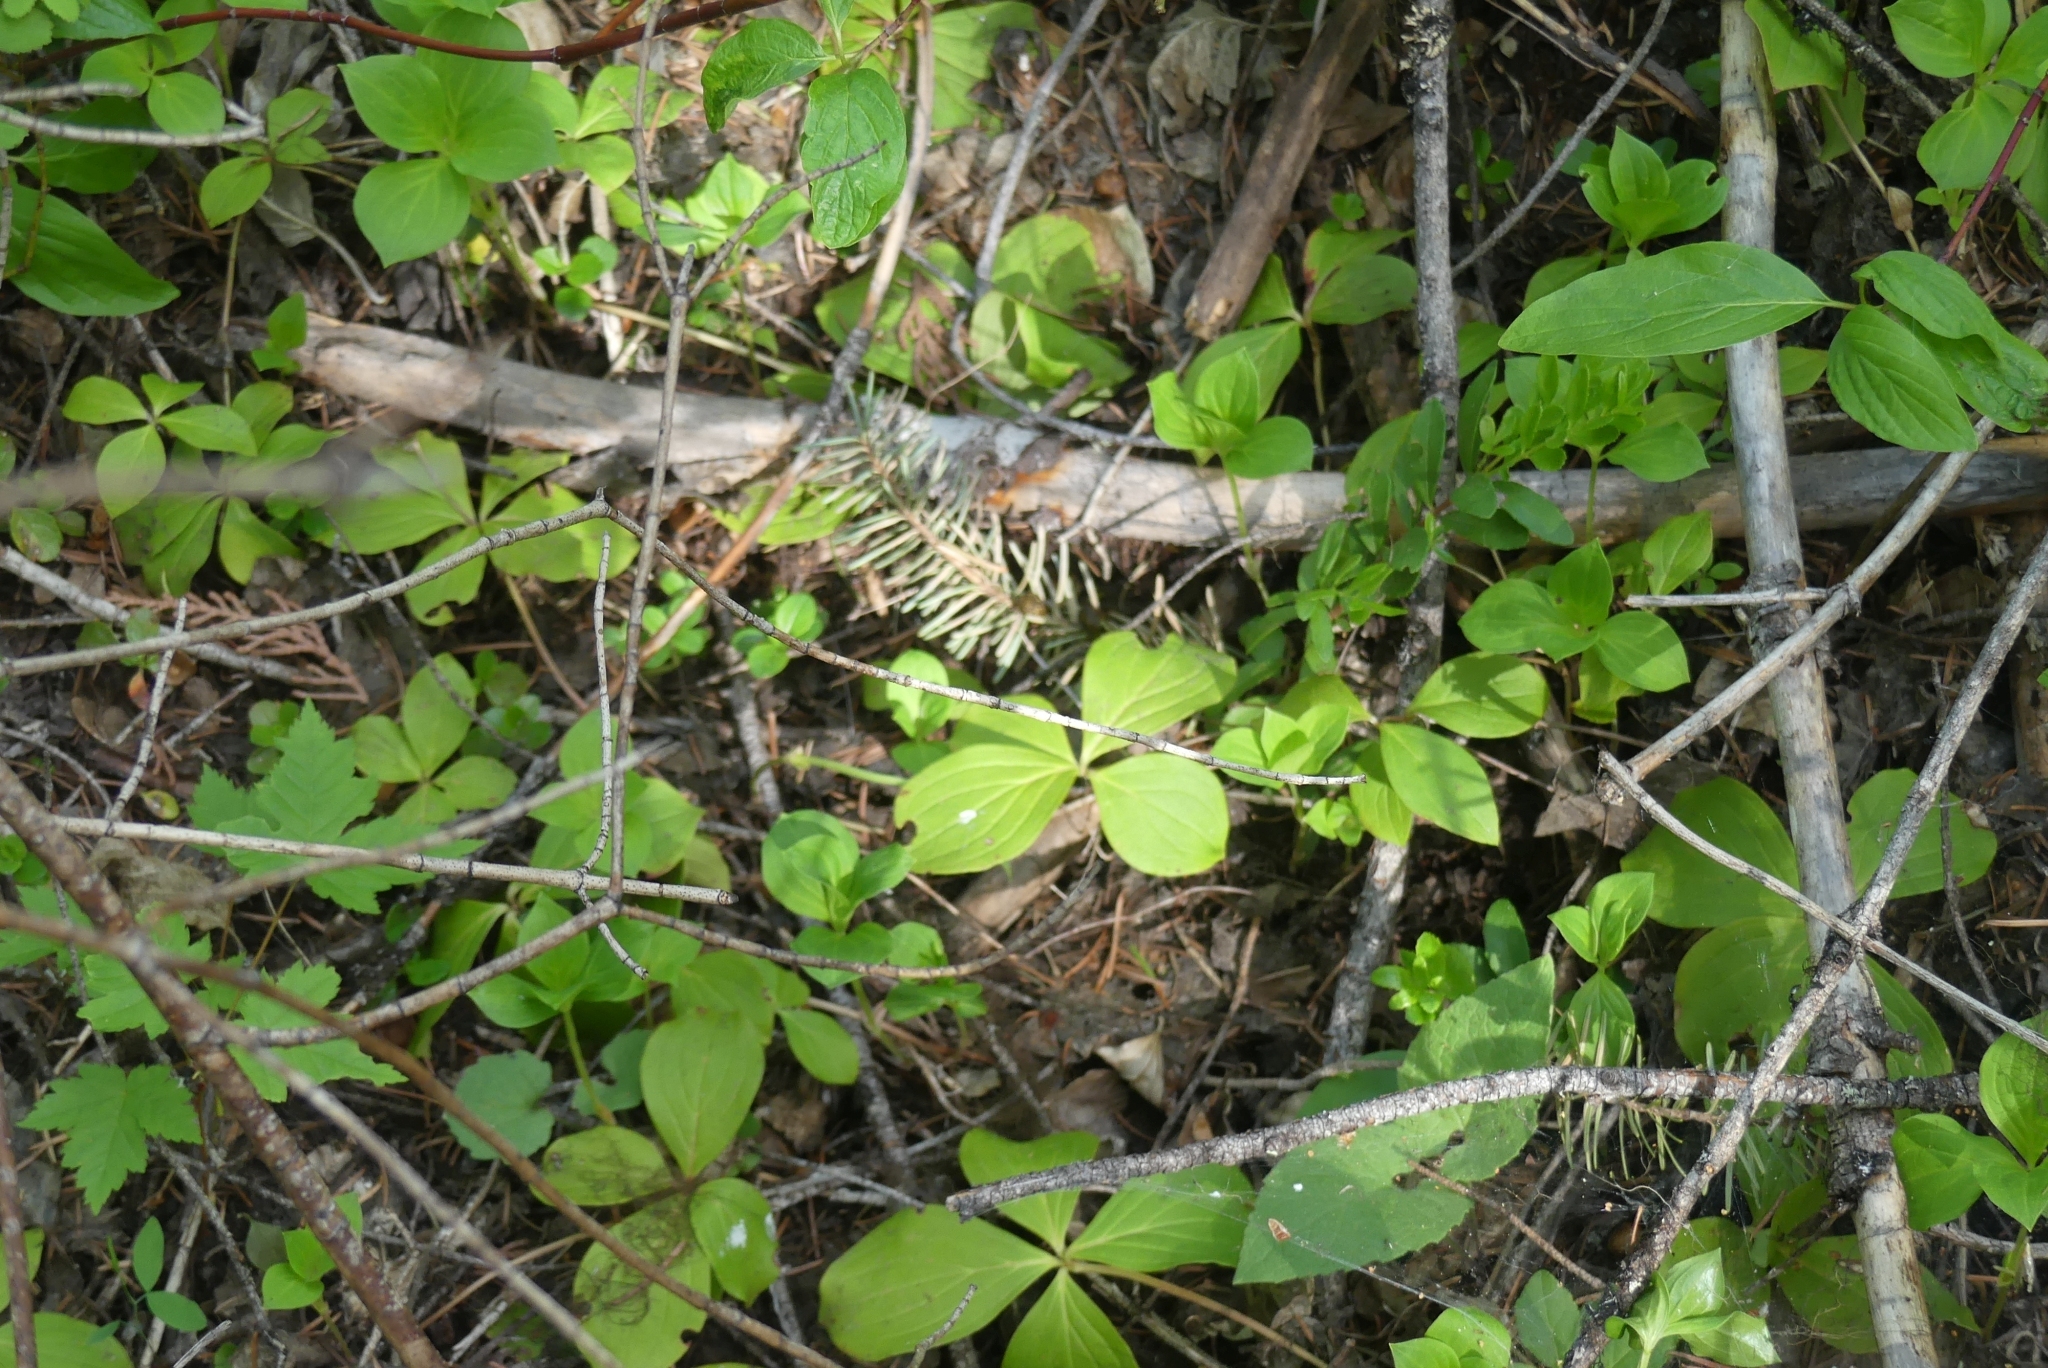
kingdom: Plantae
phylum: Tracheophyta
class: Magnoliopsida
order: Cornales
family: Cornaceae
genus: Cornus
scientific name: Cornus unalaschkensis
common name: Alaska bunchberry
